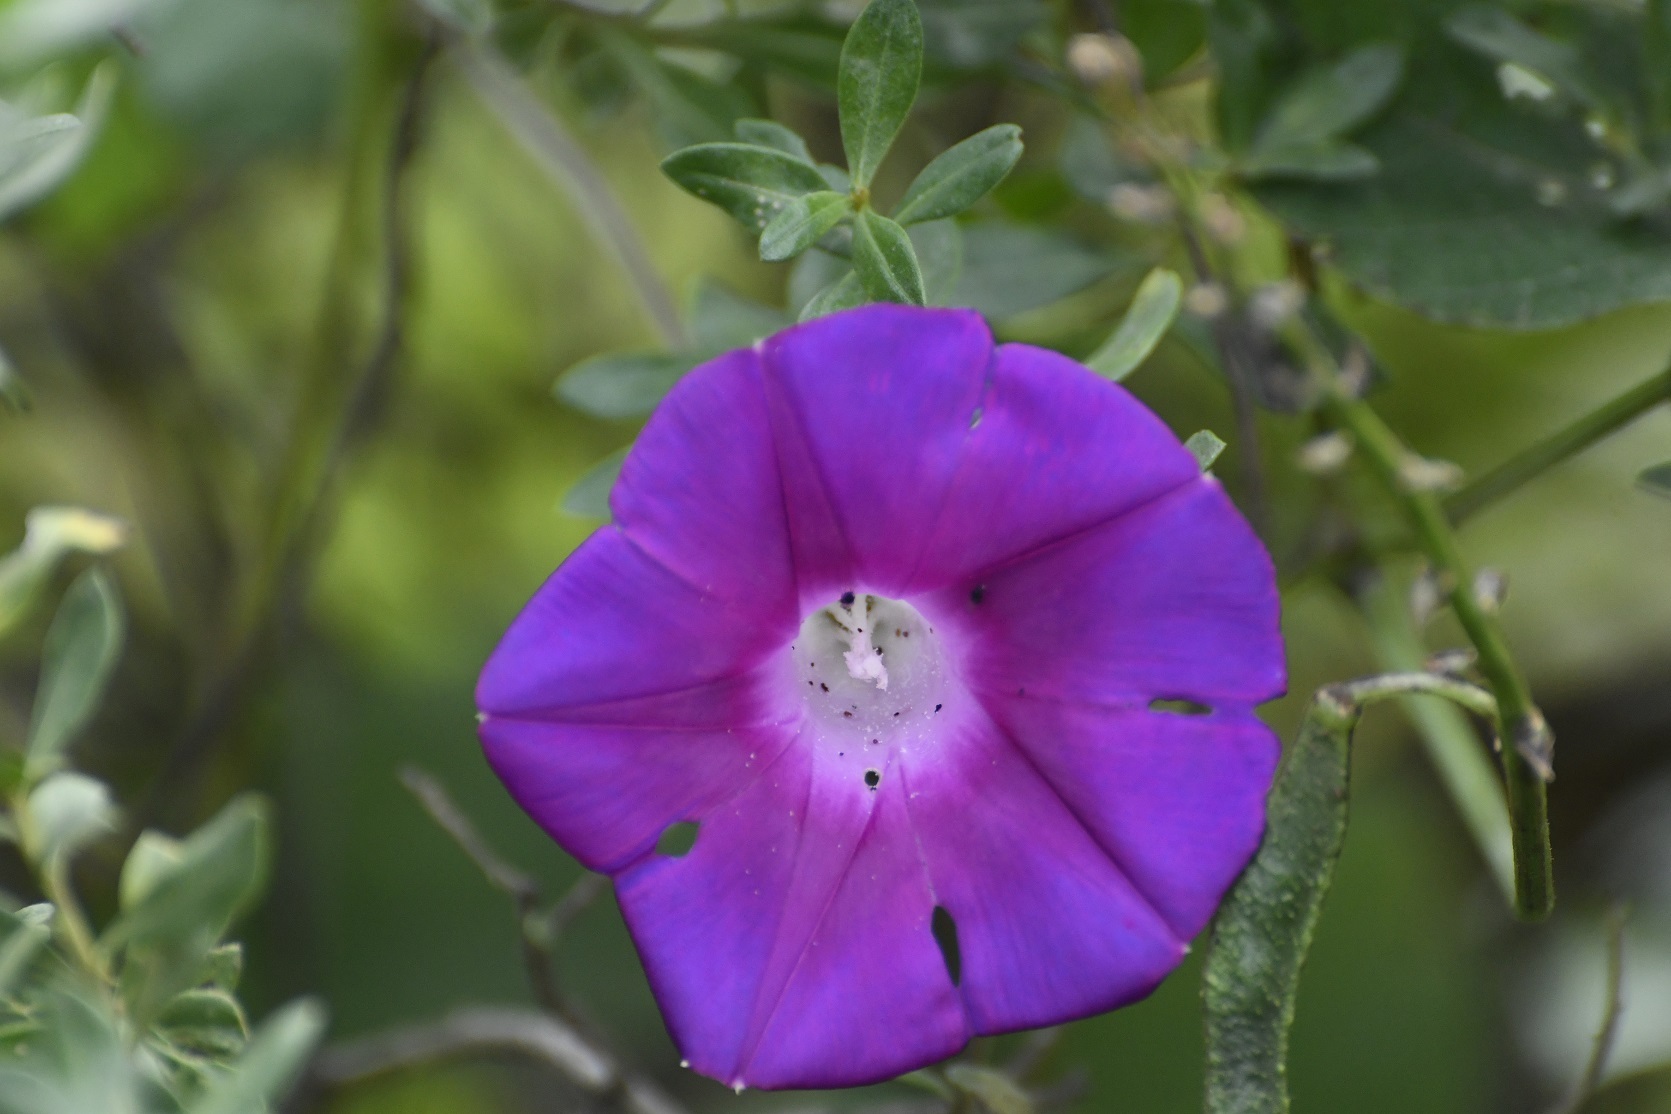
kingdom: Plantae
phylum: Tracheophyta
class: Magnoliopsida
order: Solanales
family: Convolvulaceae
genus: Ipomoea
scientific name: Ipomoea orizabensis
